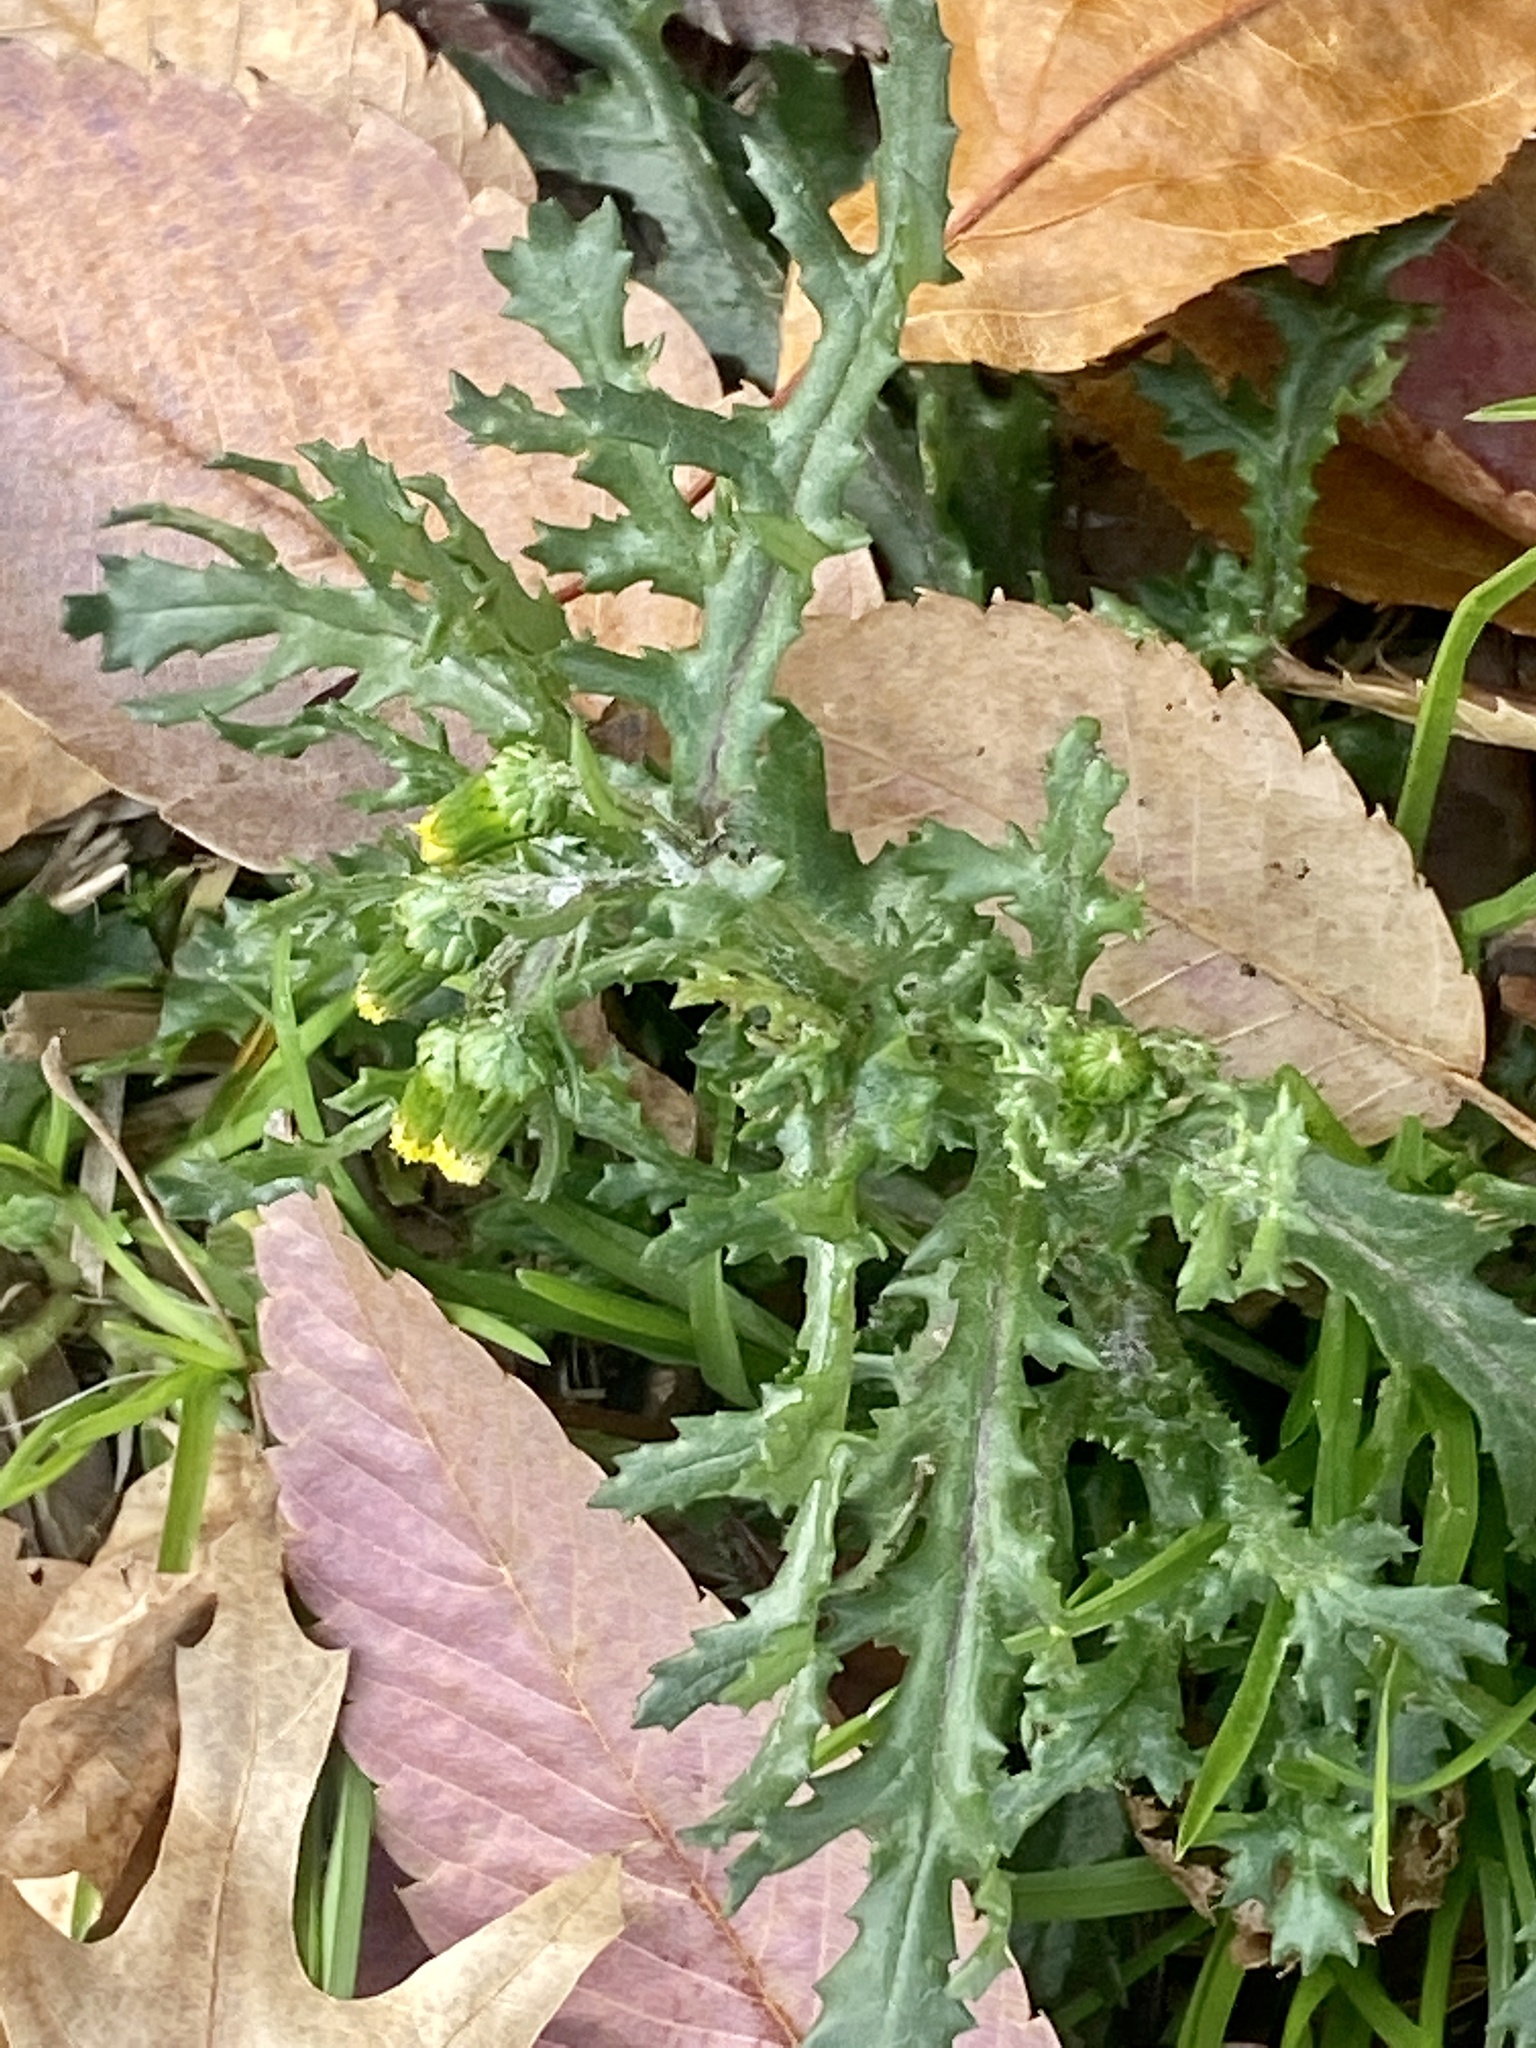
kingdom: Plantae
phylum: Tracheophyta
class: Magnoliopsida
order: Asterales
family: Asteraceae
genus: Senecio
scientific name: Senecio vulgaris
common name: Old-man-in-the-spring
